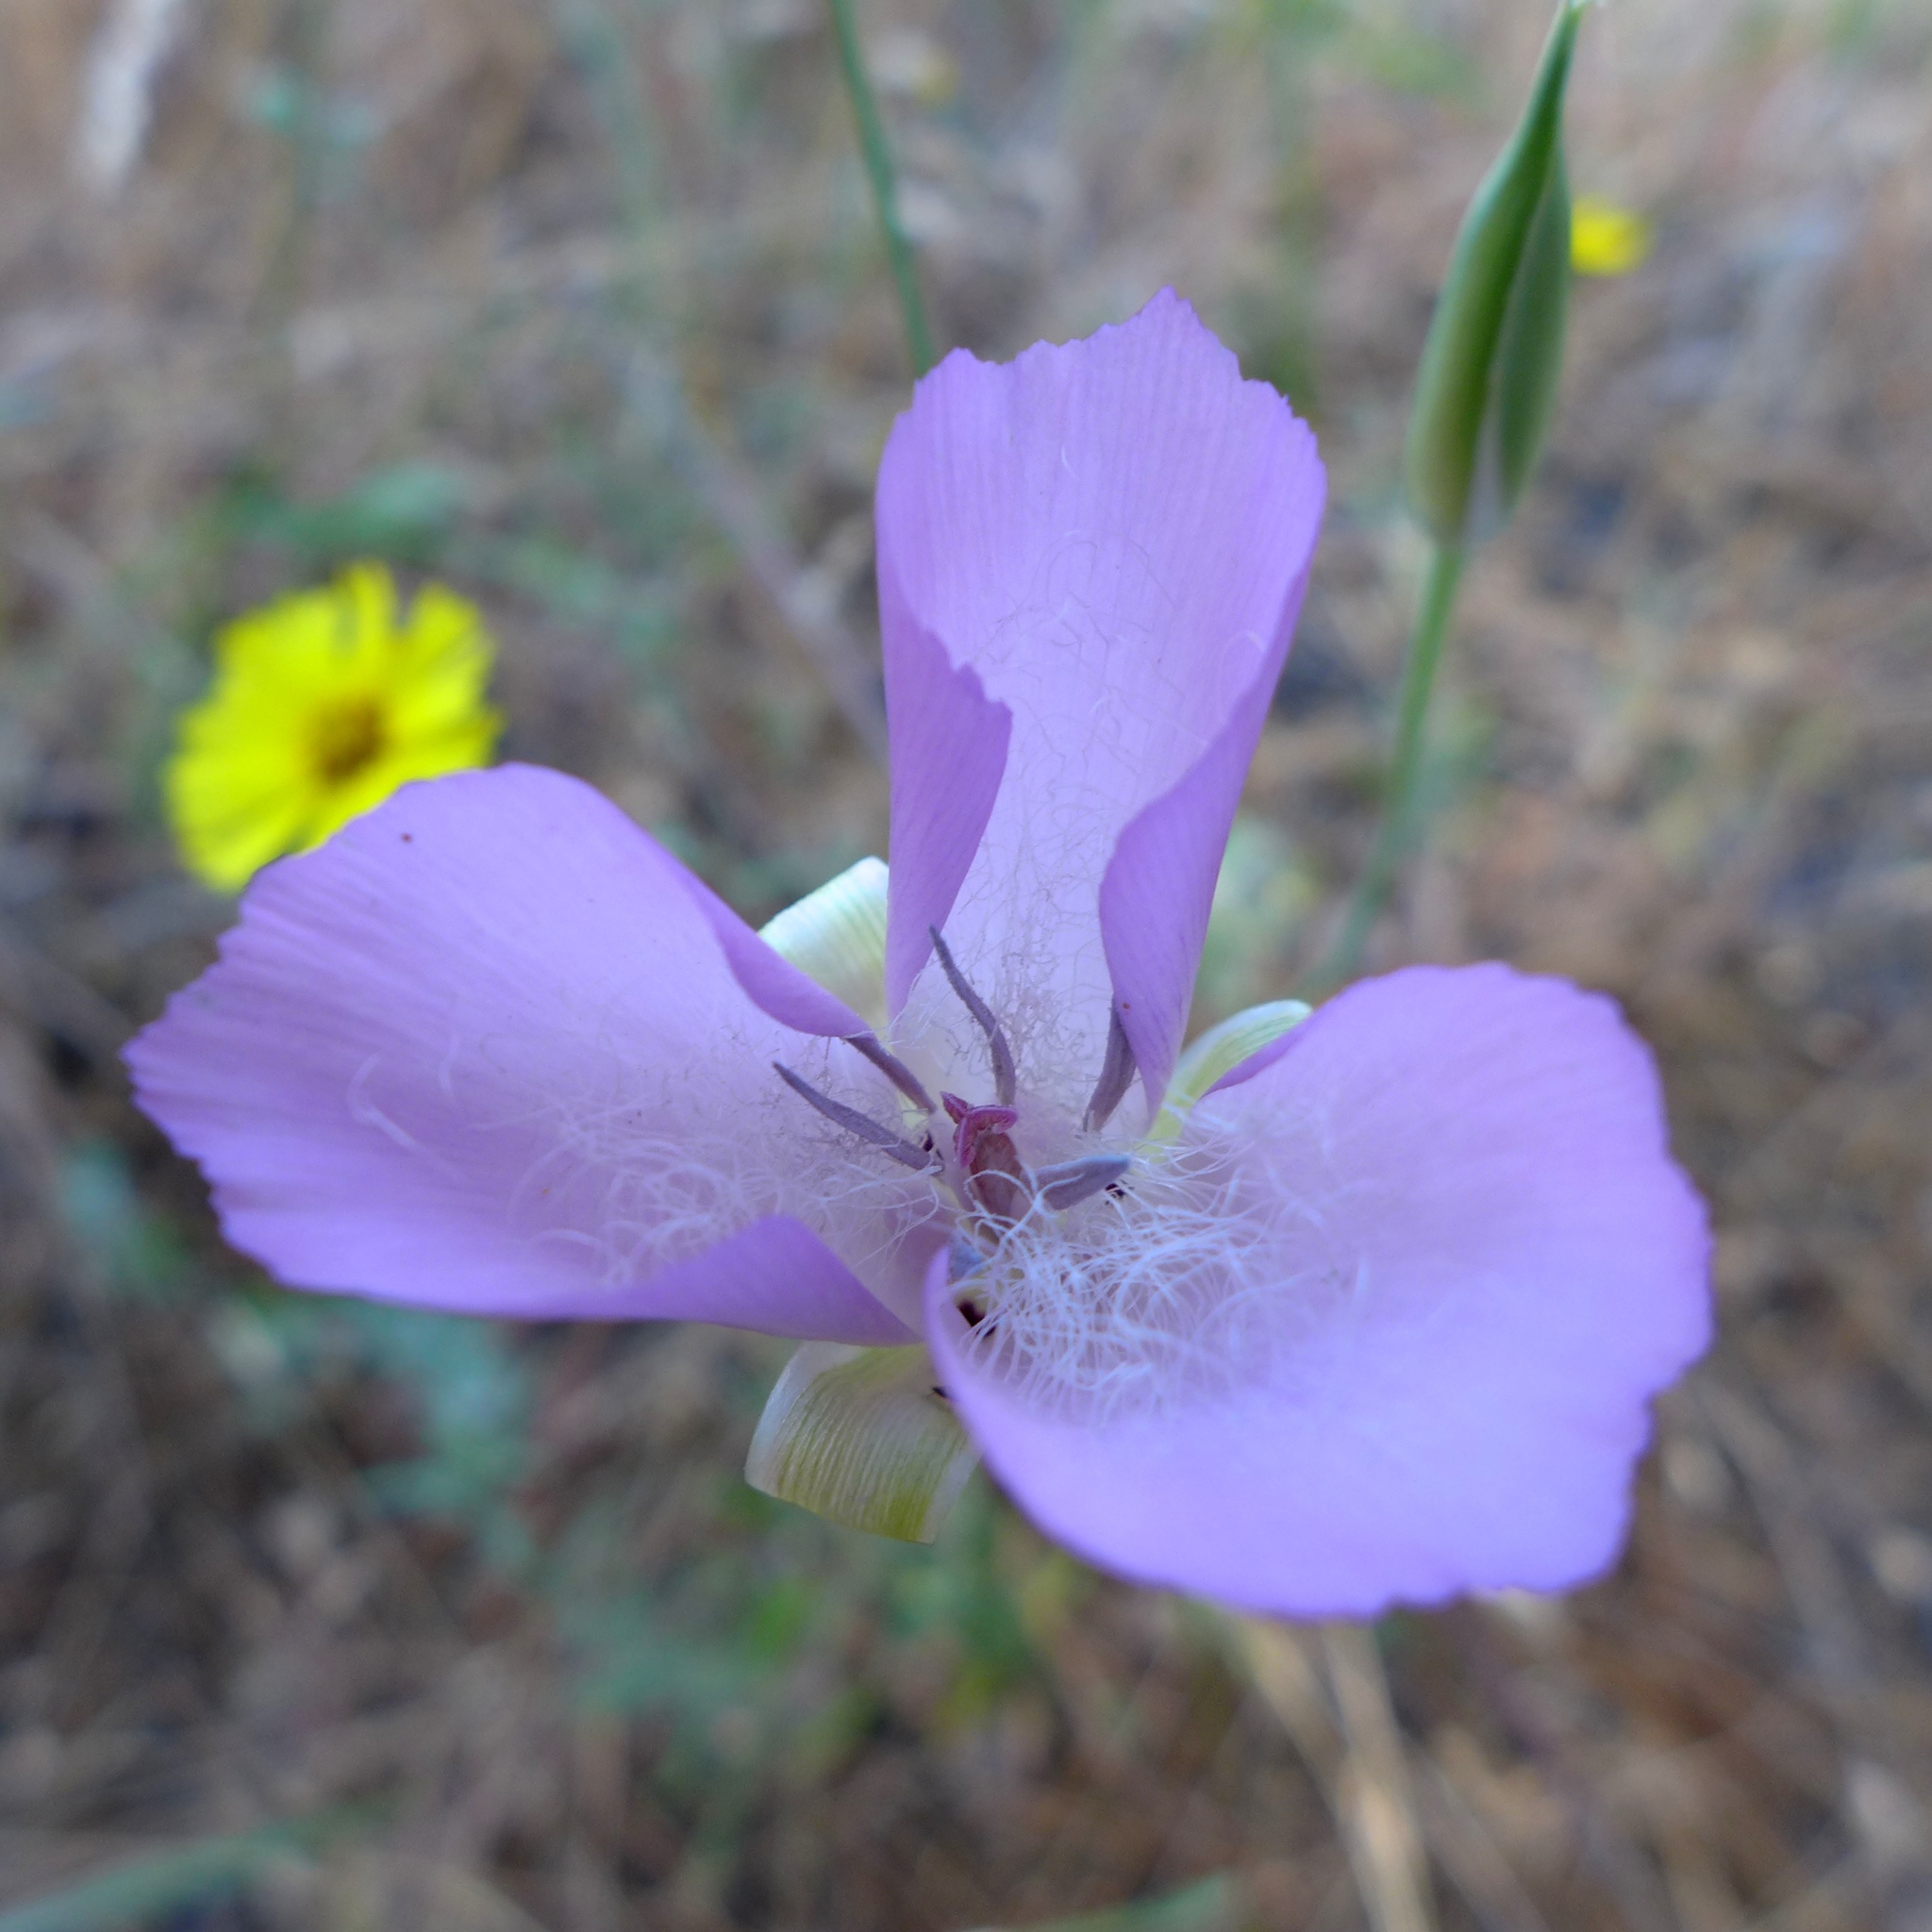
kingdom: Plantae
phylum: Tracheophyta
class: Liliopsida
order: Liliales
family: Liliaceae
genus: Calochortus
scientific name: Calochortus splendens
